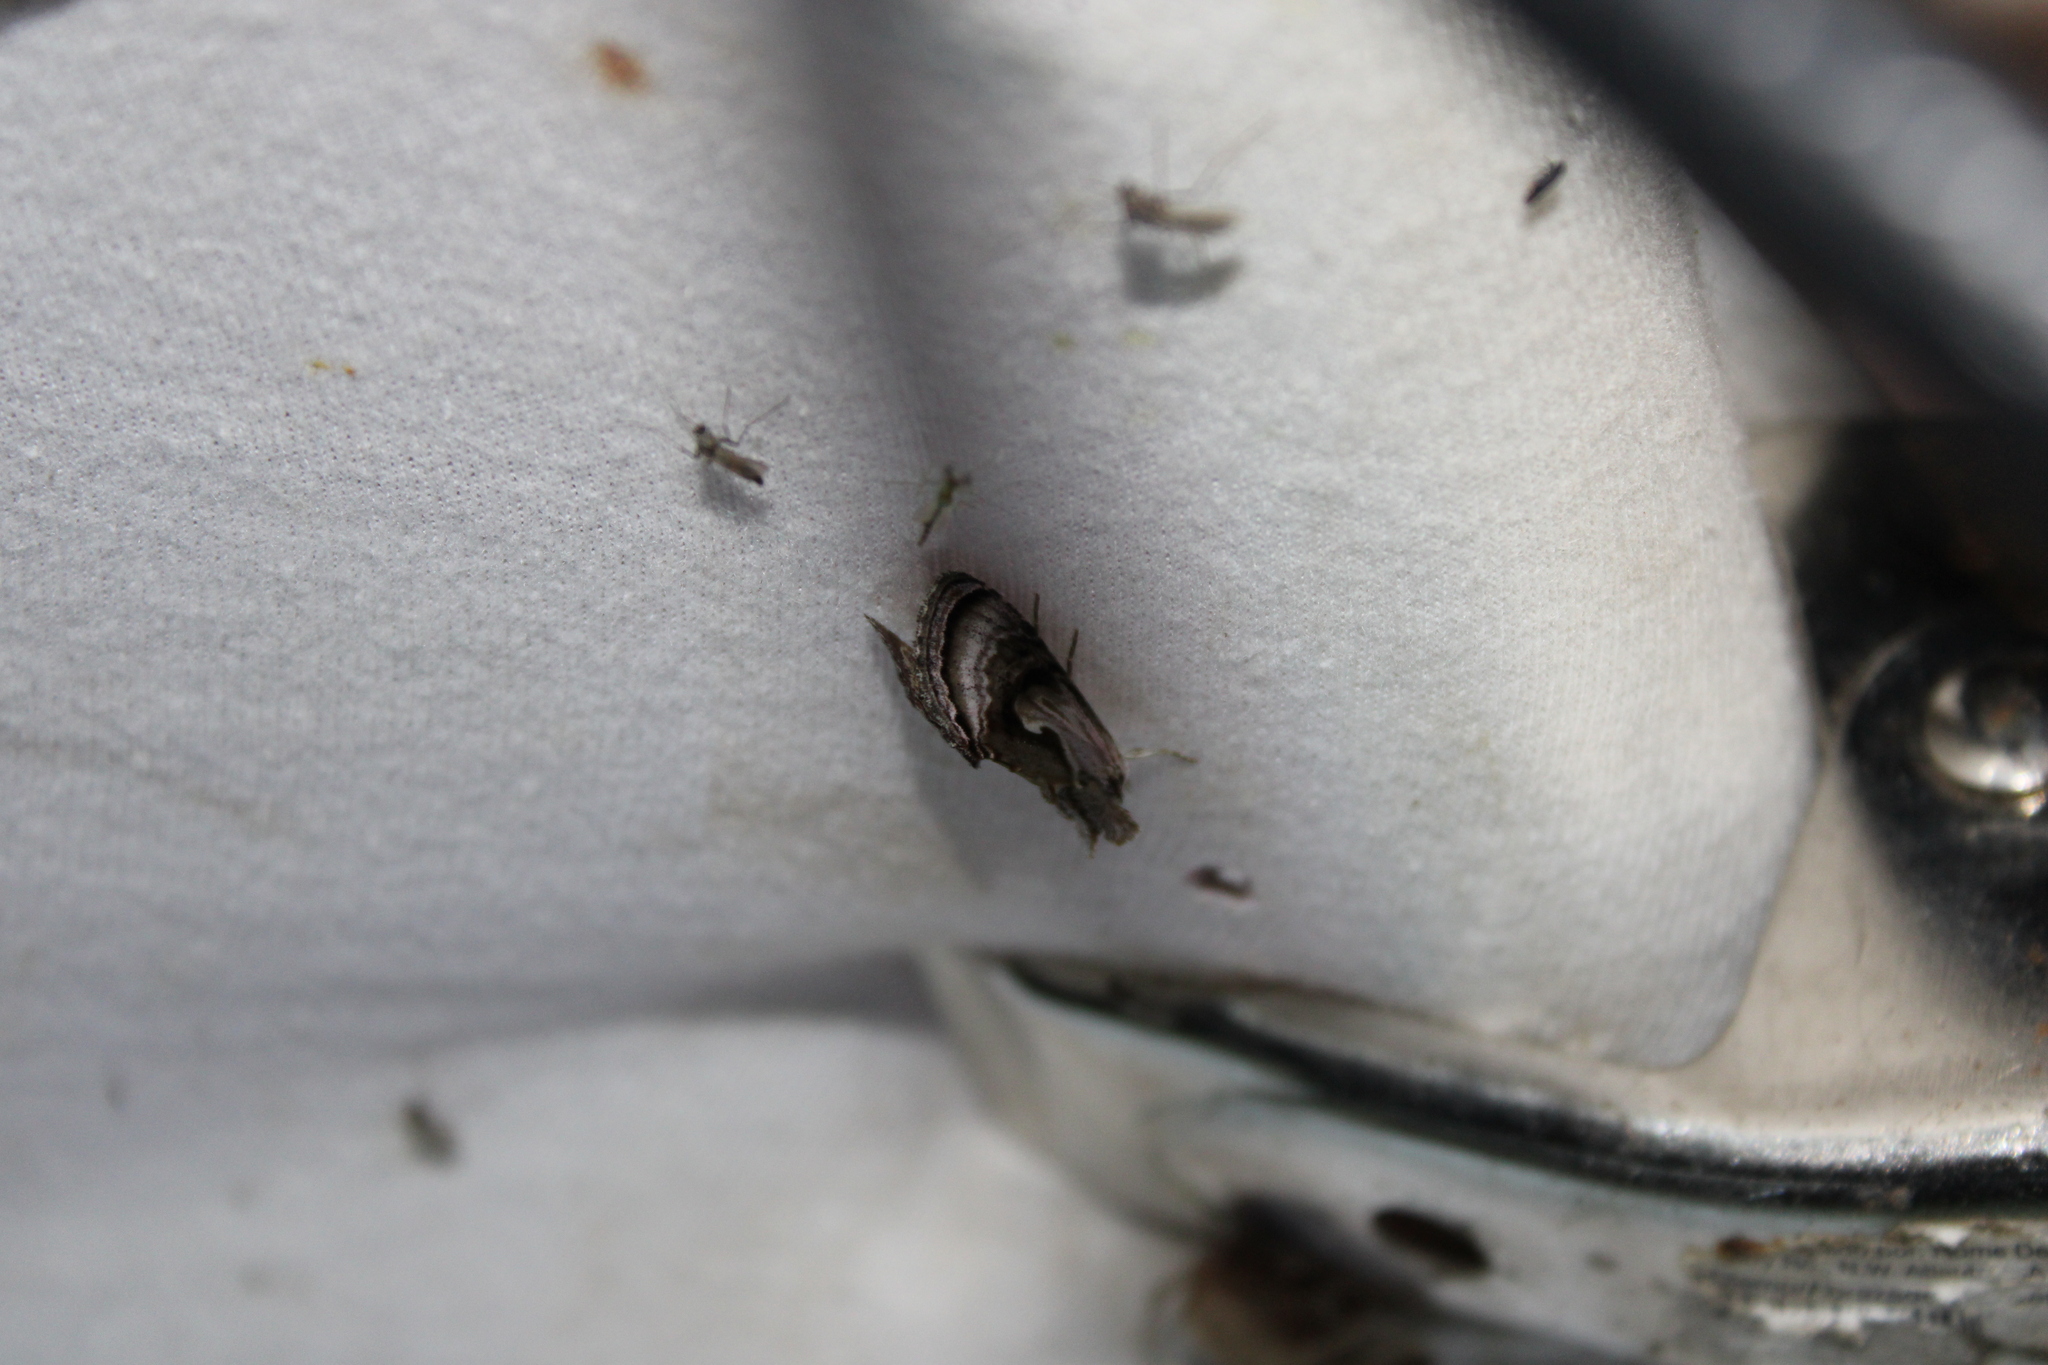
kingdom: Animalia
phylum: Arthropoda
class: Insecta
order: Lepidoptera
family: Noctuidae
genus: Chrysanympha
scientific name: Chrysanympha formosa
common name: Formosa looper moth
